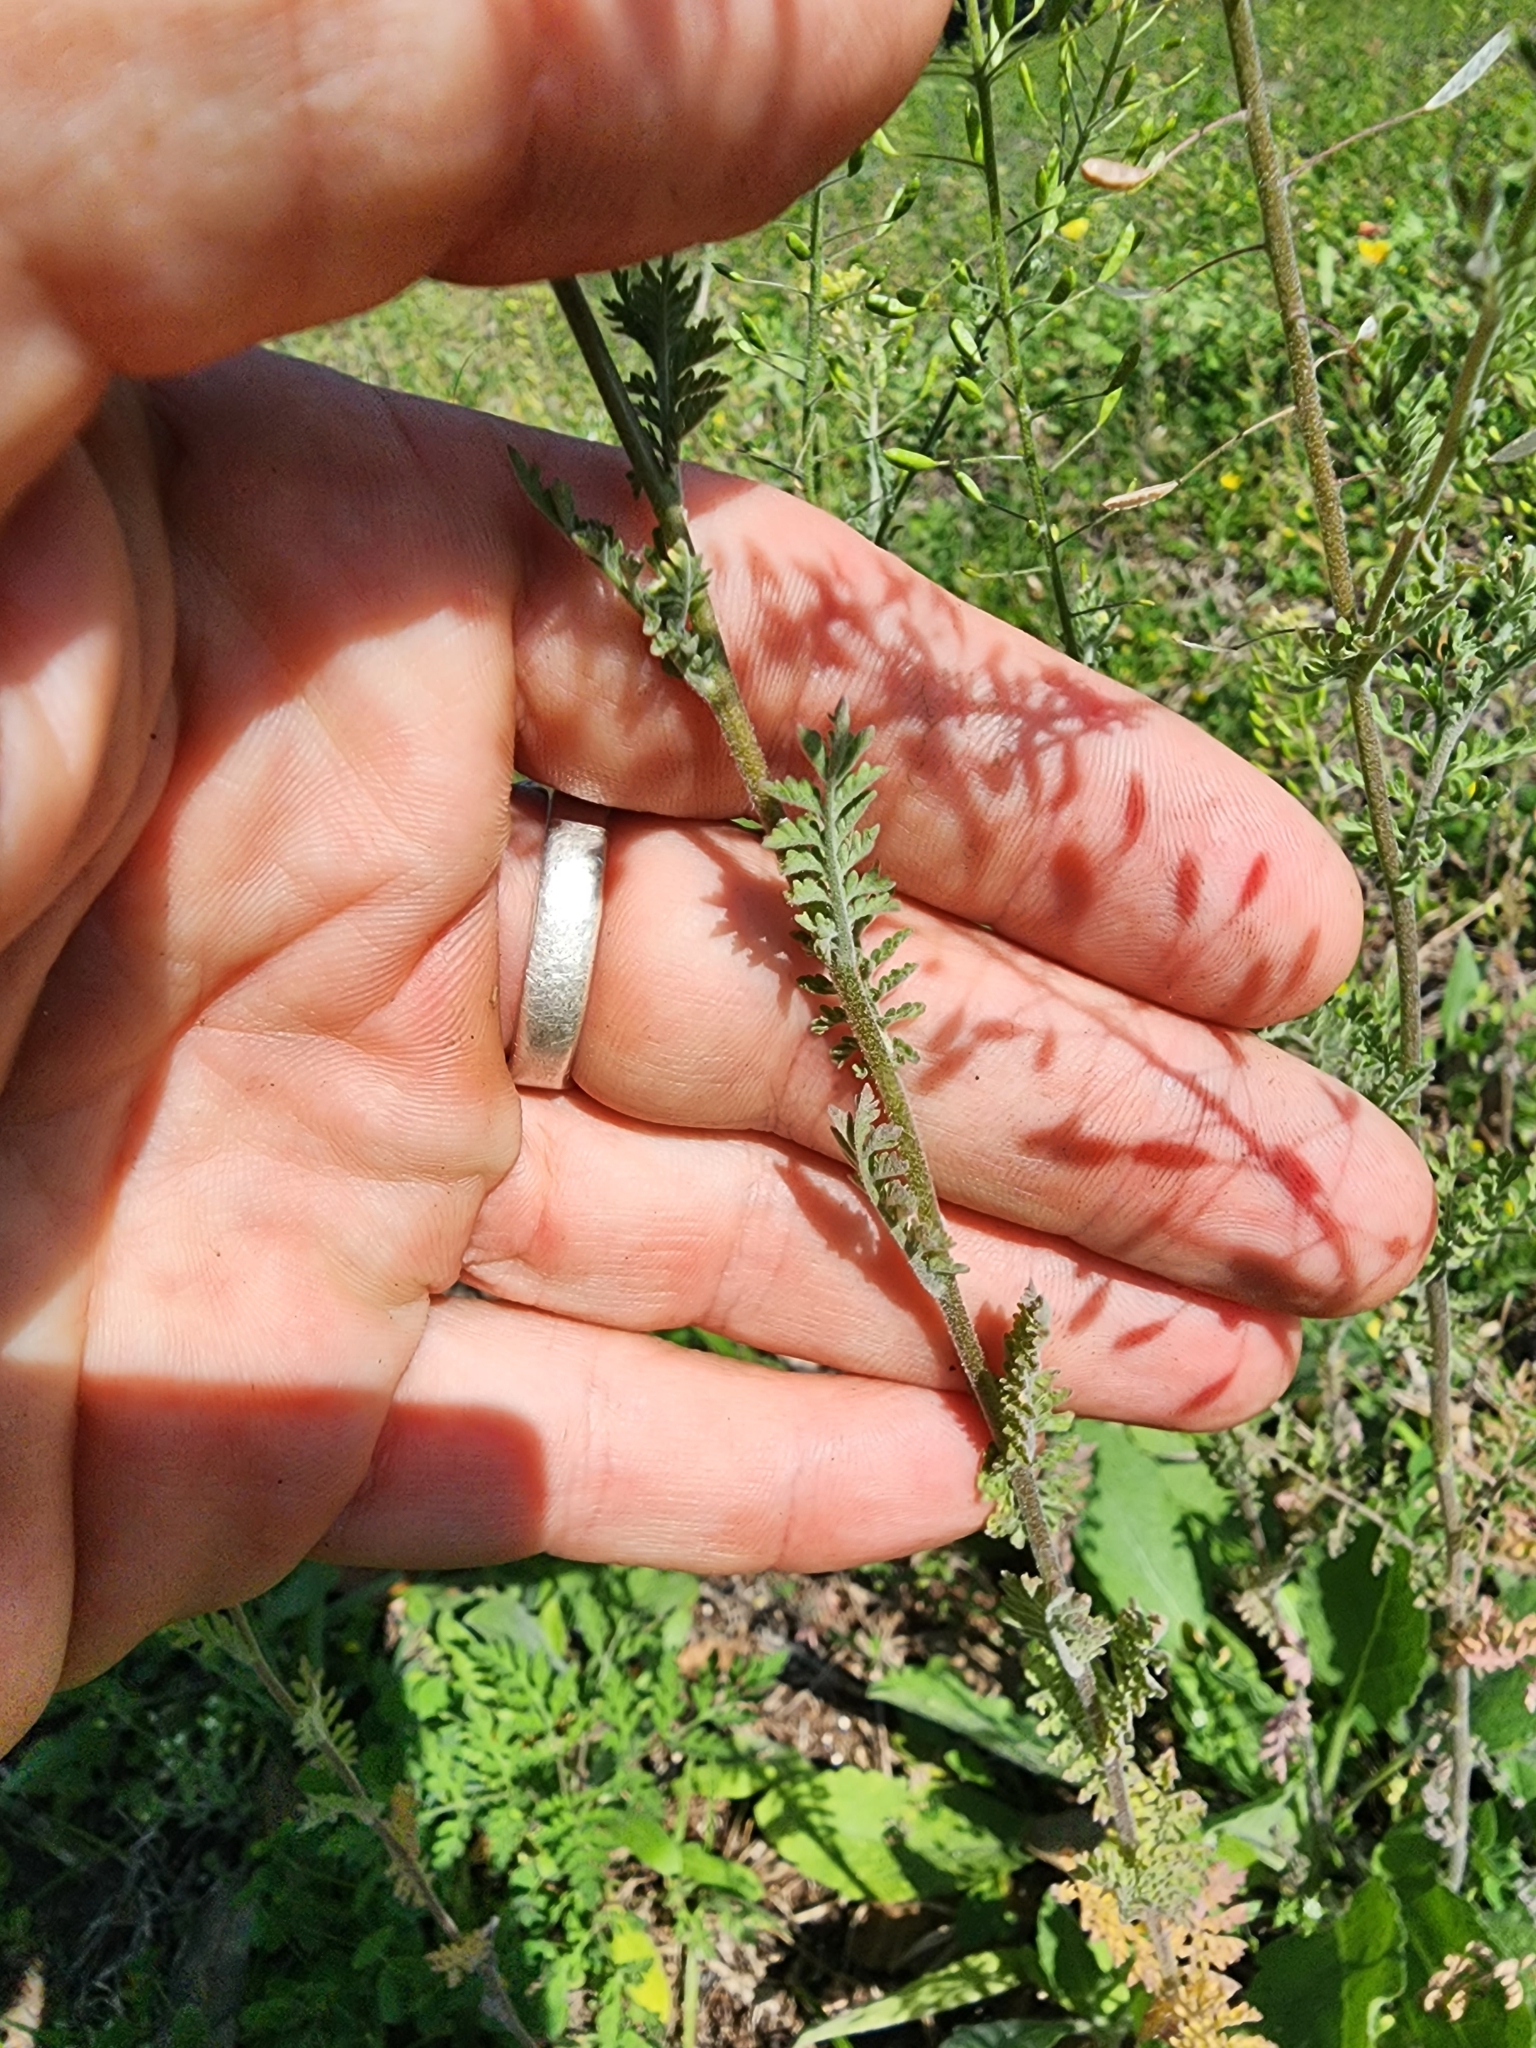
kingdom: Plantae
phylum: Tracheophyta
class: Magnoliopsida
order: Brassicales
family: Brassicaceae
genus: Descurainia
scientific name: Descurainia pinnata
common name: Western tansy mustard
